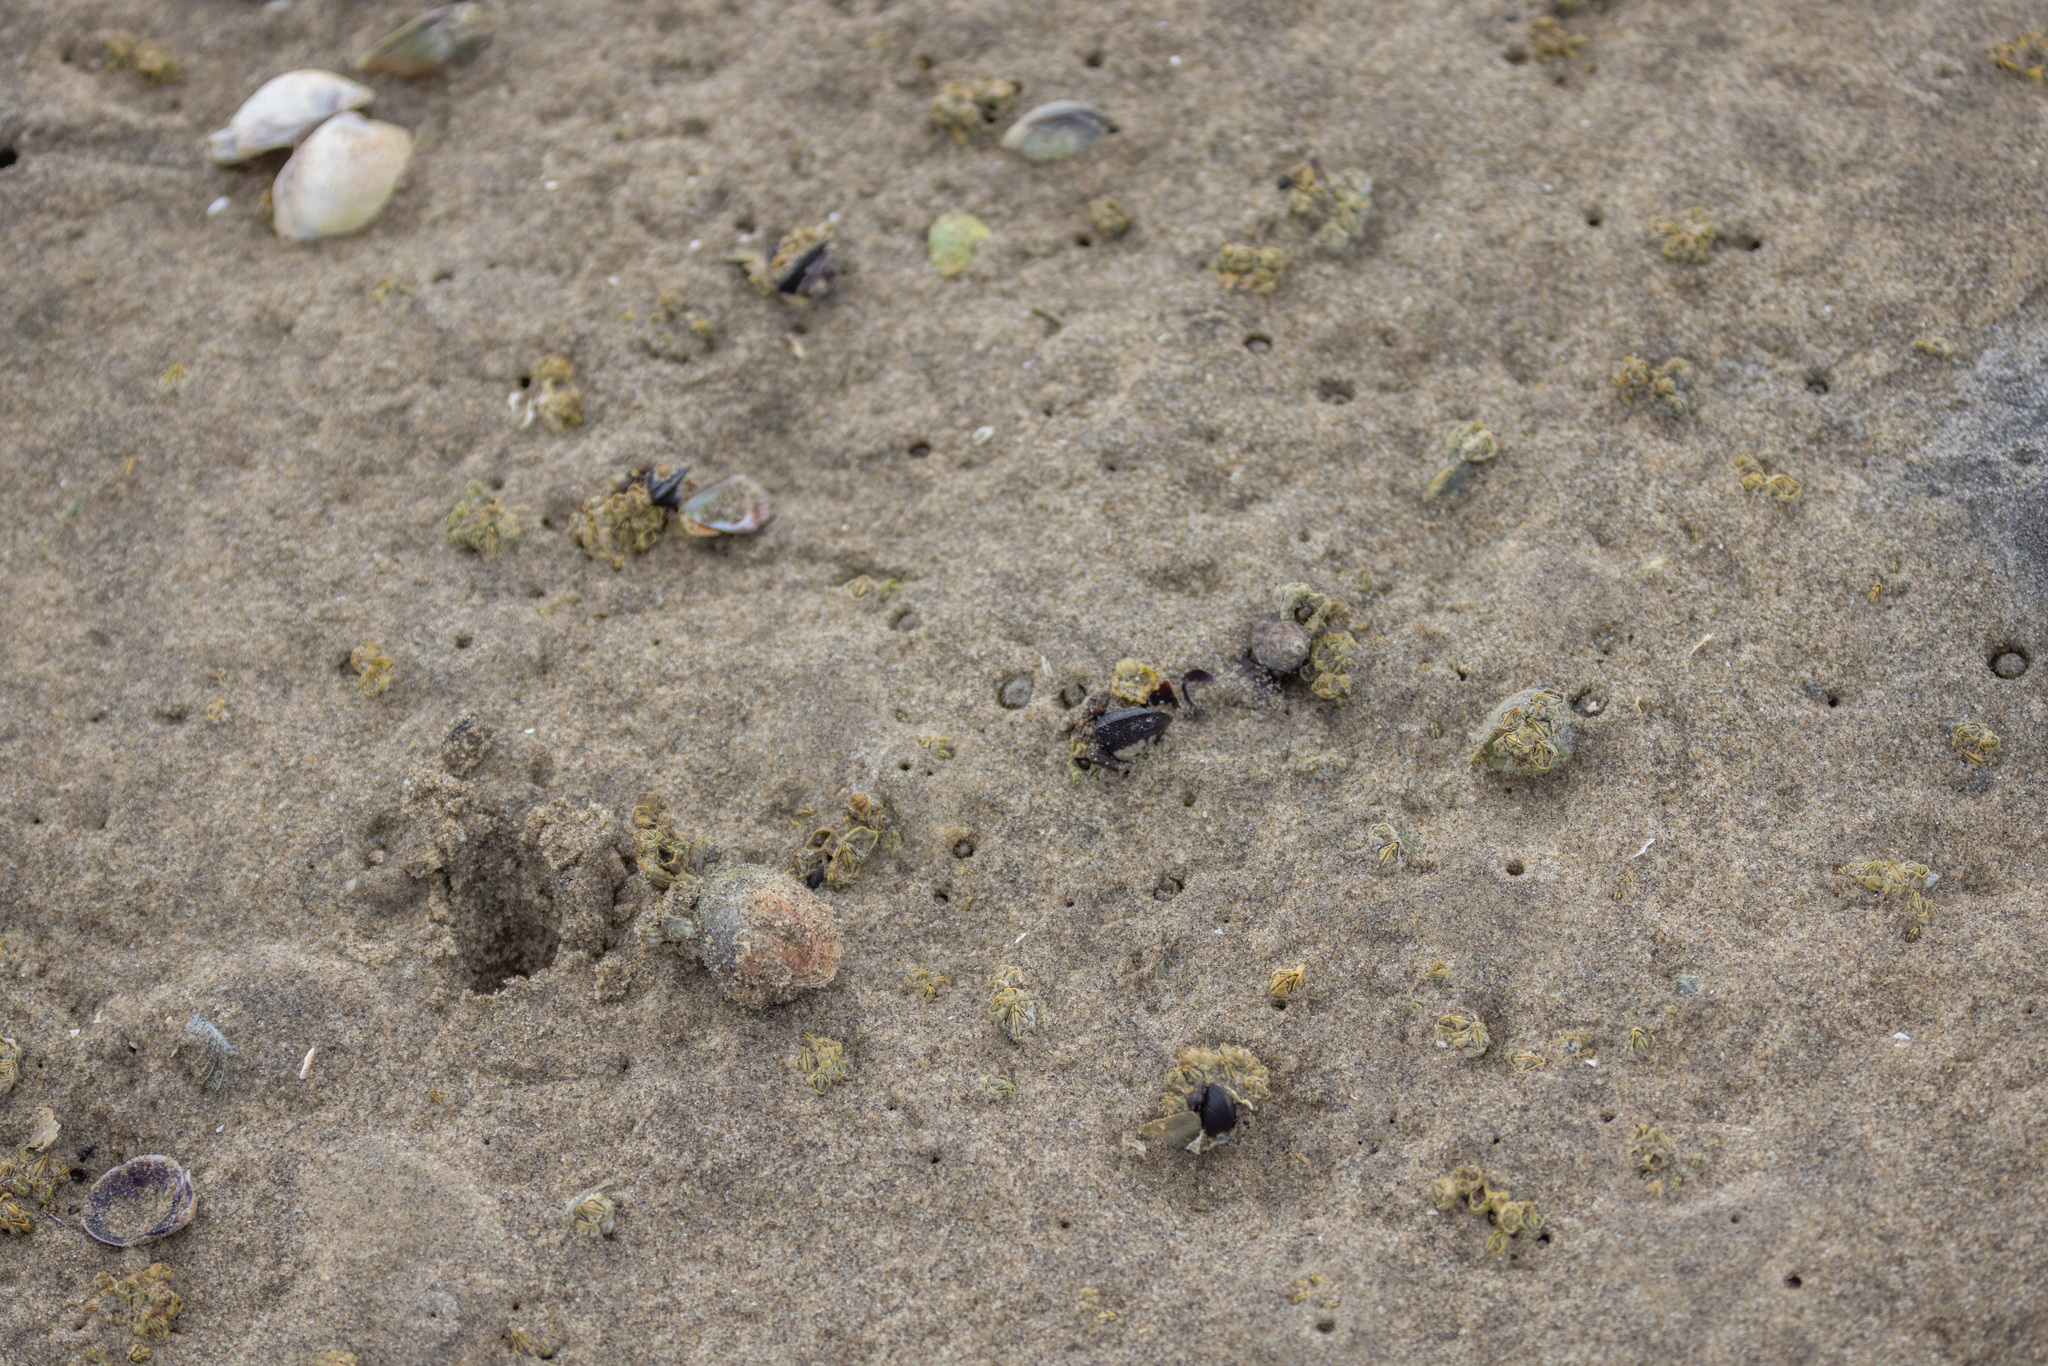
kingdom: Animalia
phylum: Mollusca
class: Bivalvia
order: Venerida
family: Veneridae
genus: Austrovenus
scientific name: Austrovenus stutchburyi
